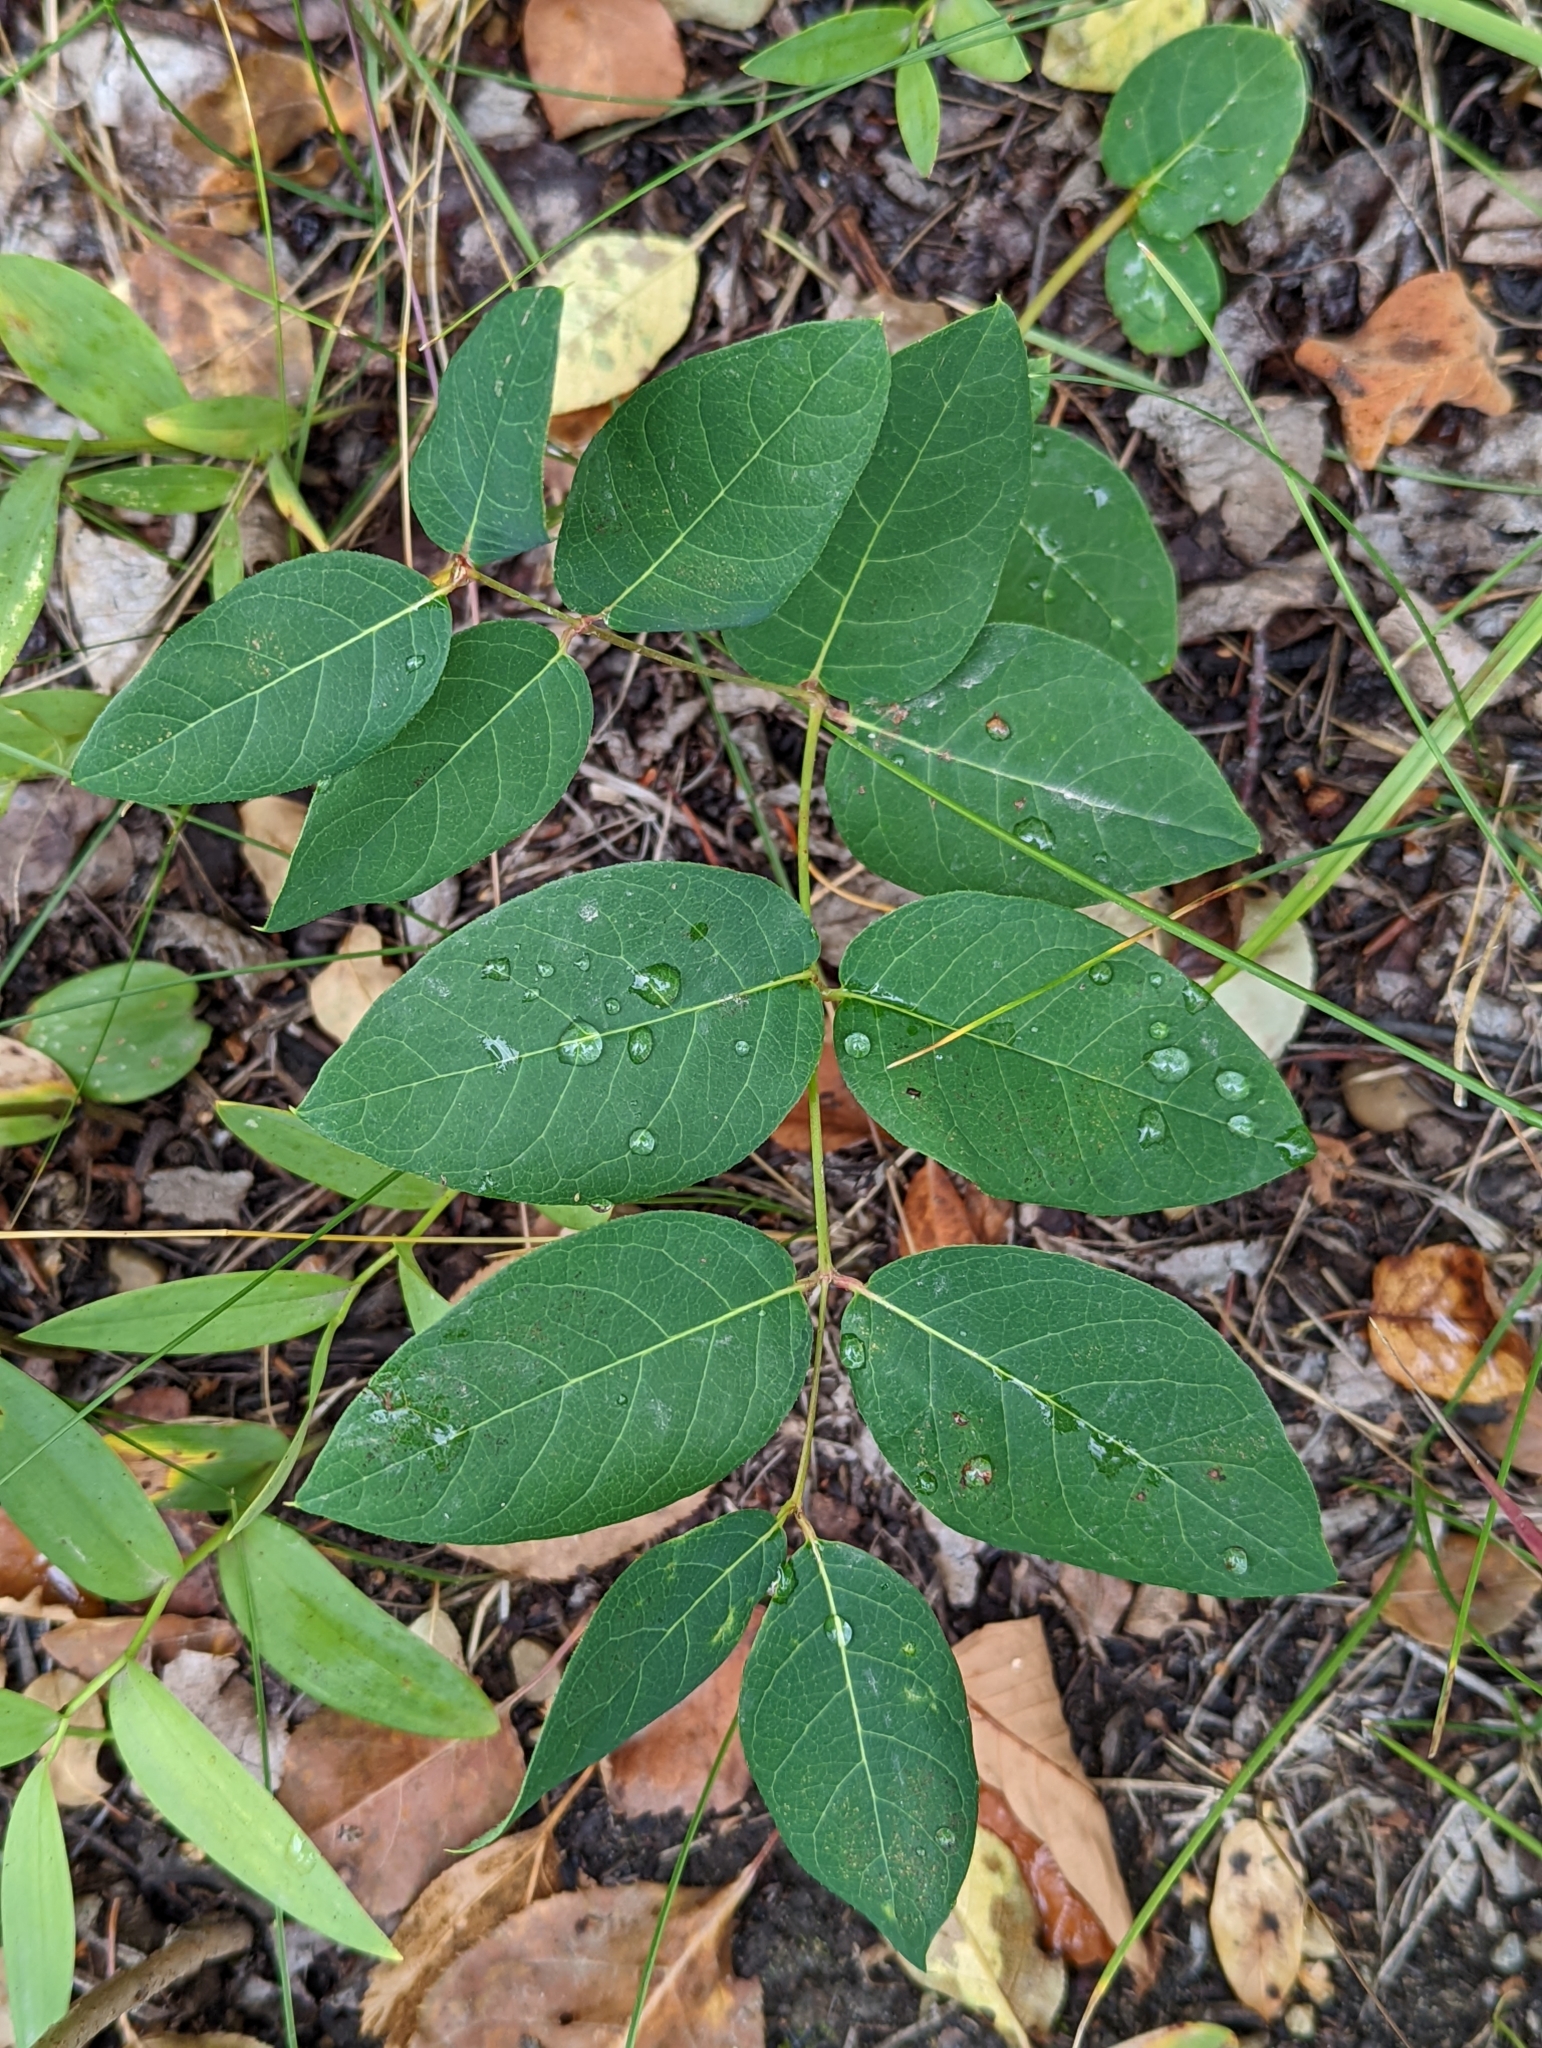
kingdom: Plantae
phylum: Tracheophyta
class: Magnoliopsida
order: Gentianales
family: Apocynaceae
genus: Apocynum
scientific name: Apocynum androsaemifolium
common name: Spreading dogbane
